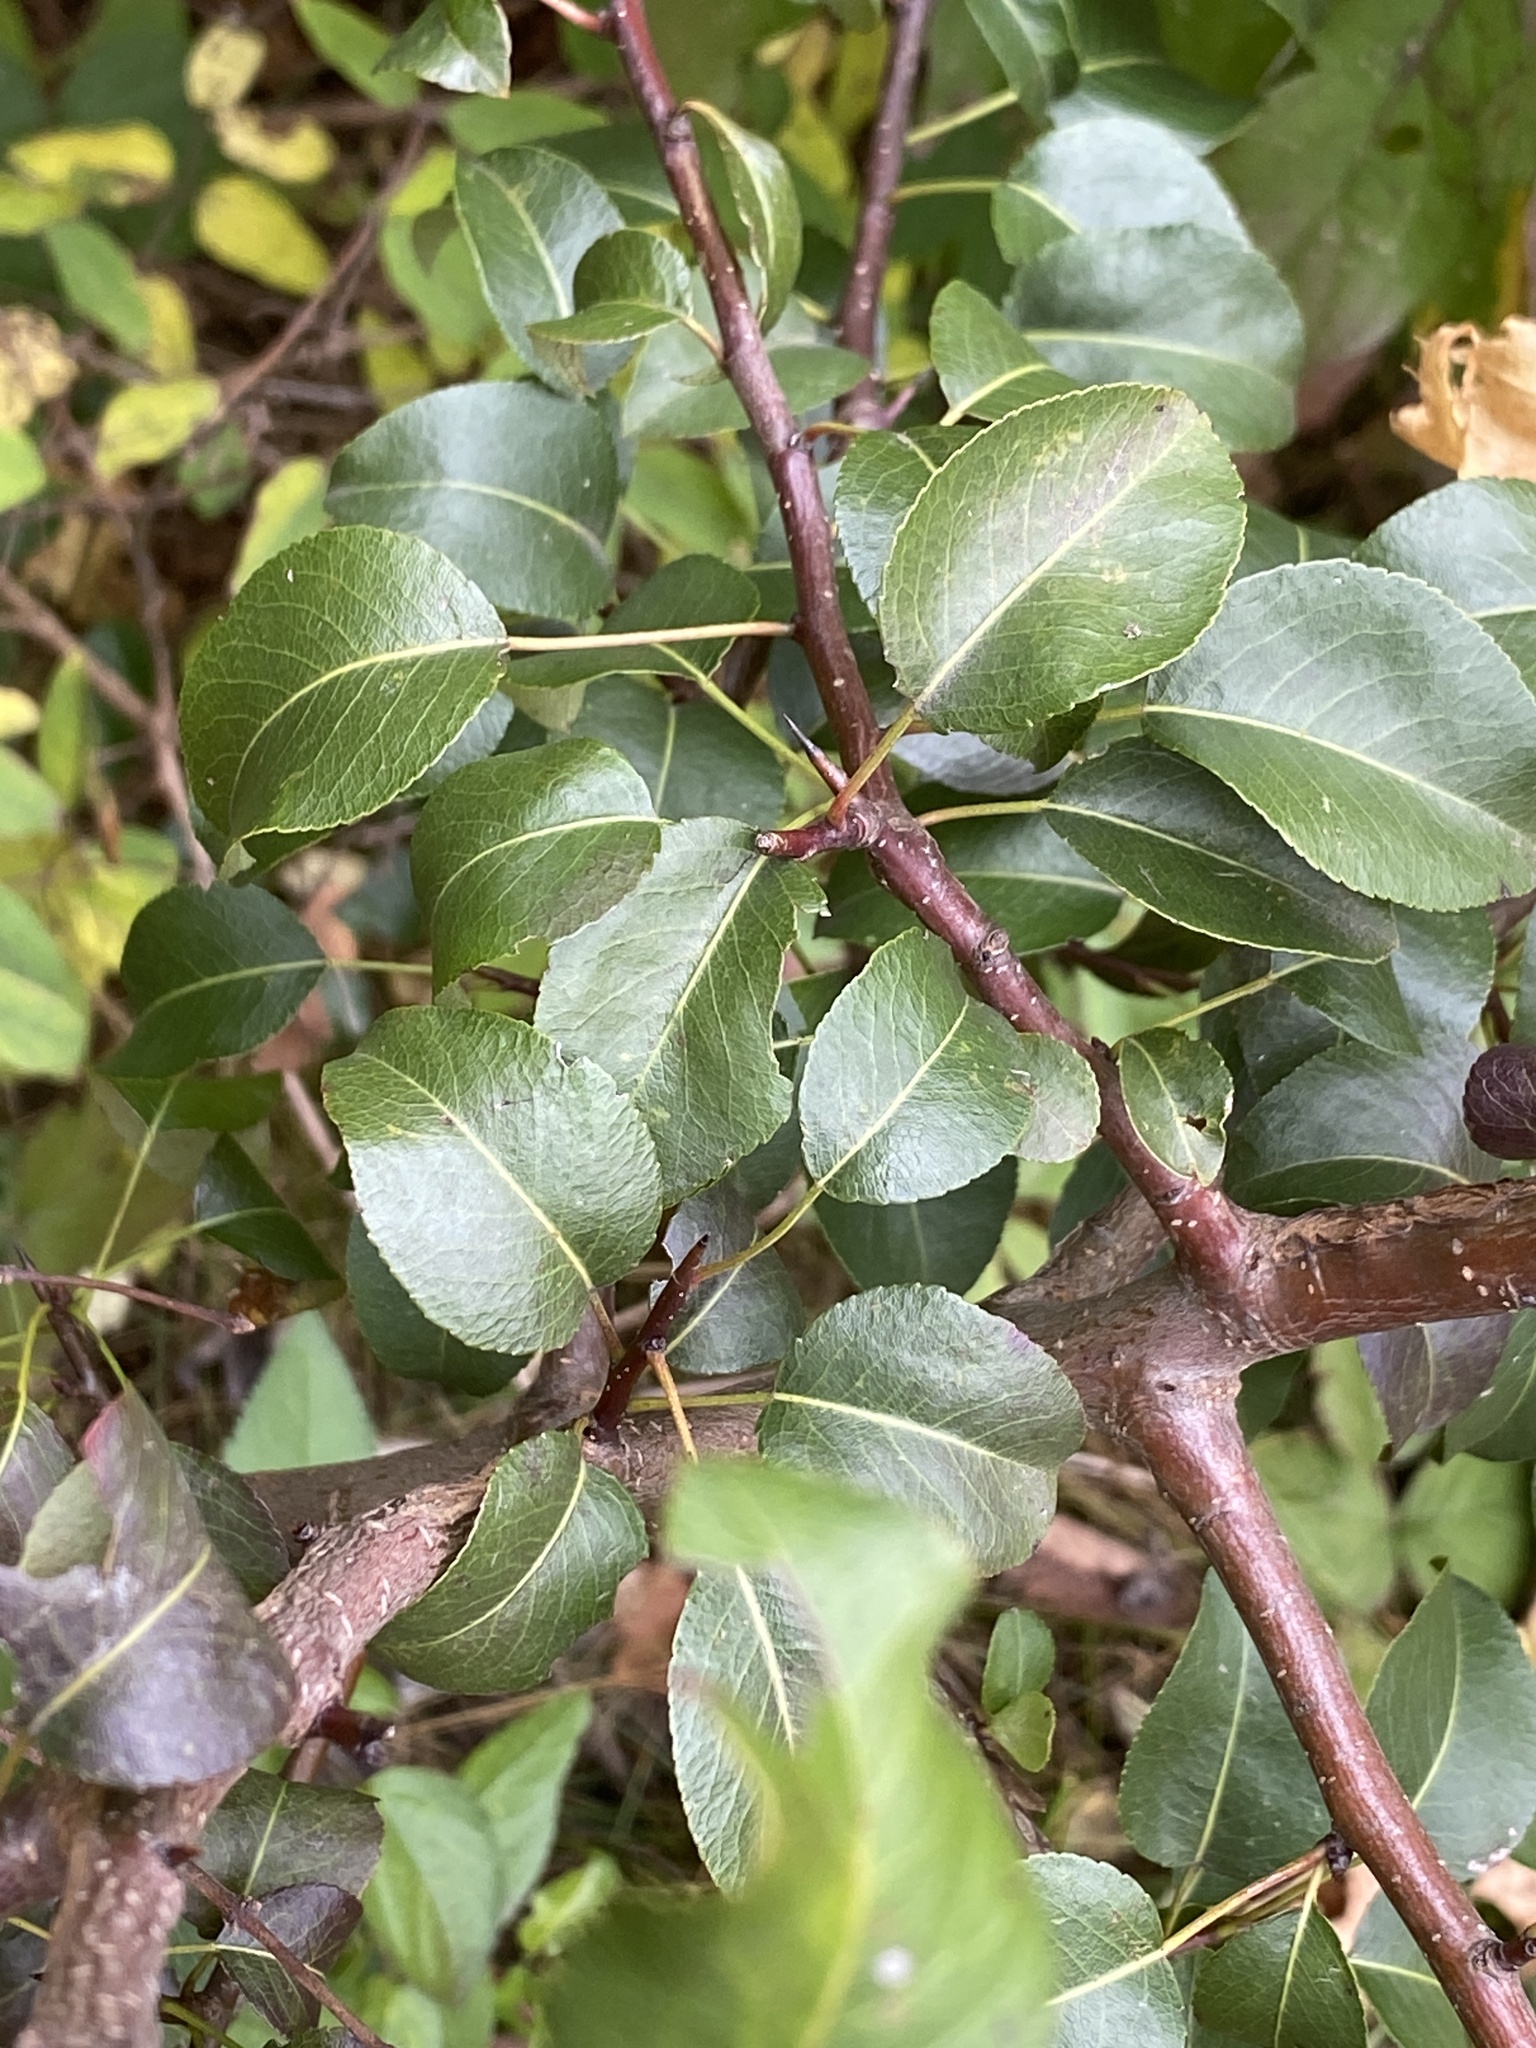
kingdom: Plantae
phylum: Tracheophyta
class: Magnoliopsida
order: Rosales
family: Rosaceae
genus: Pyrus
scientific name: Pyrus calleryana
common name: Callery pear
